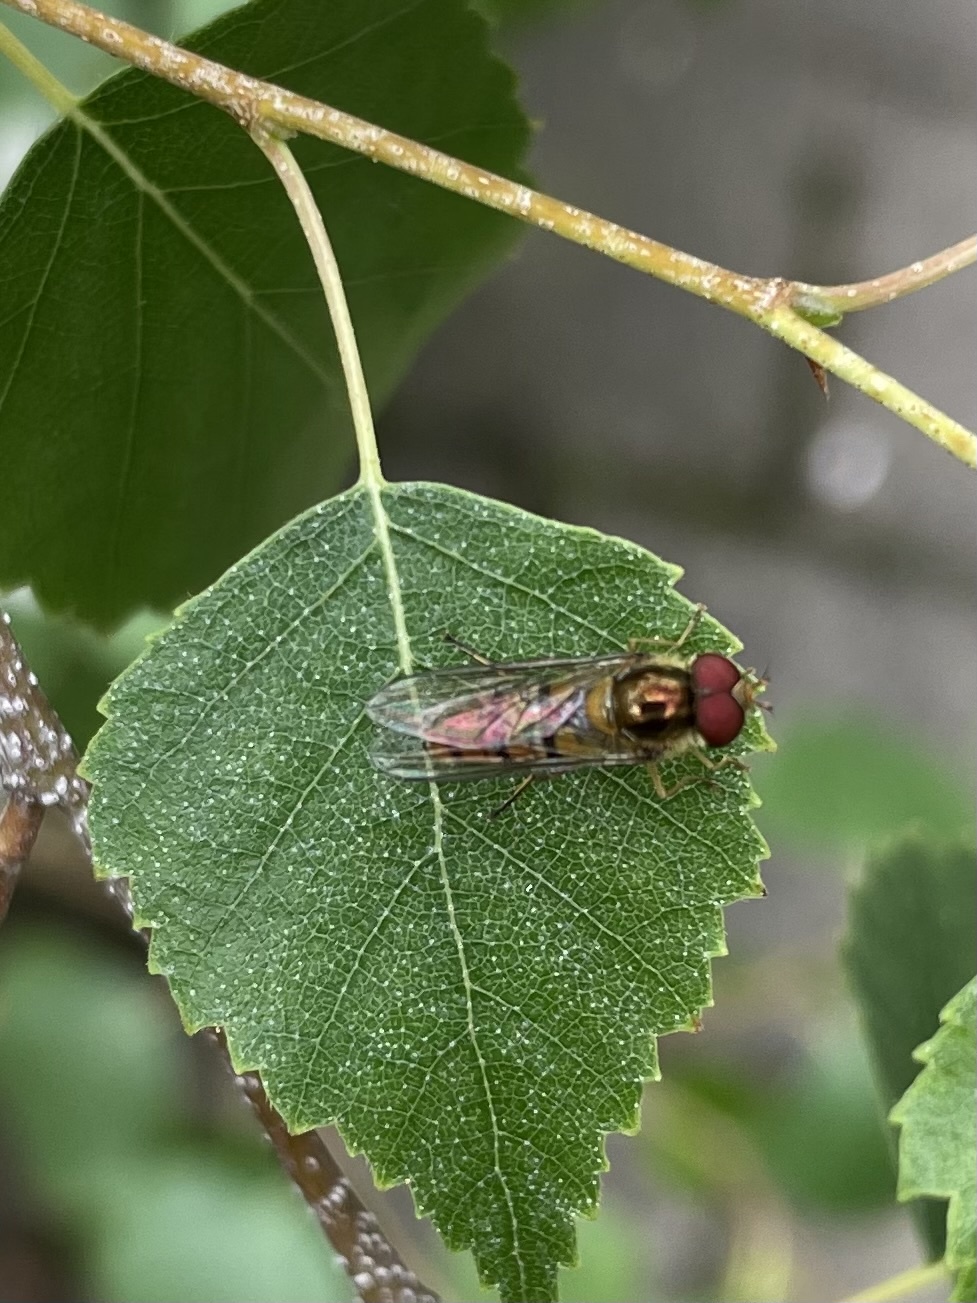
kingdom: Animalia
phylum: Arthropoda
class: Insecta
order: Diptera
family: Syrphidae
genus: Episyrphus
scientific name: Episyrphus balteatus
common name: Marmalade hoverfly
